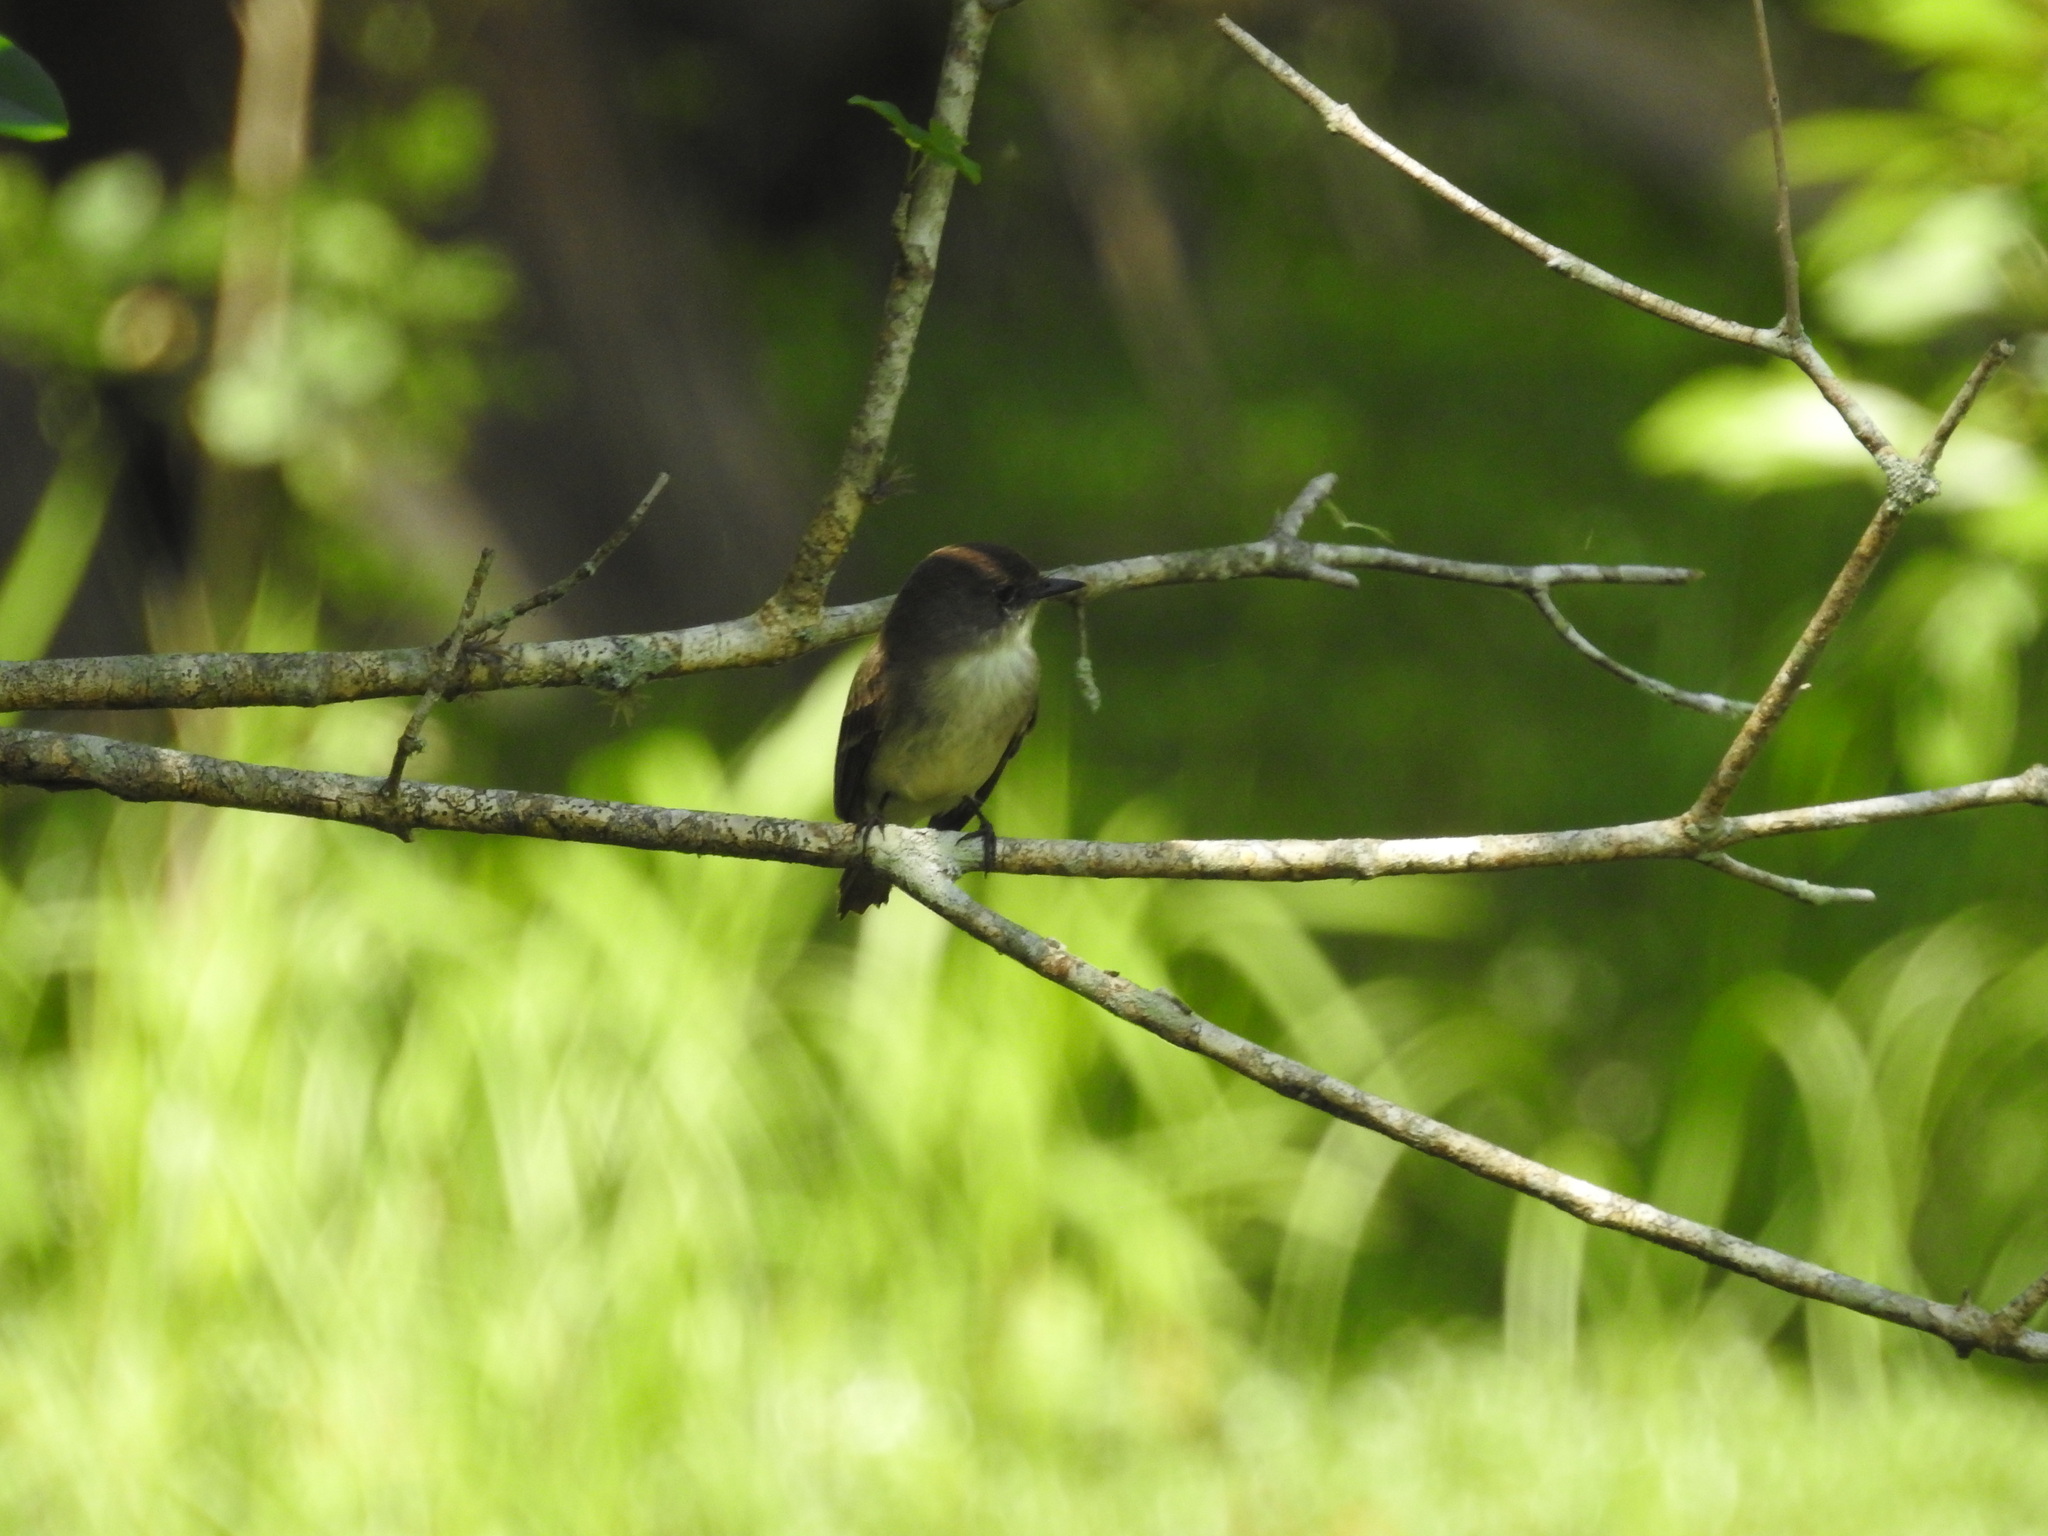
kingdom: Animalia
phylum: Chordata
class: Aves
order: Passeriformes
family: Tyrannidae
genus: Sayornis
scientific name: Sayornis phoebe
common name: Eastern phoebe
